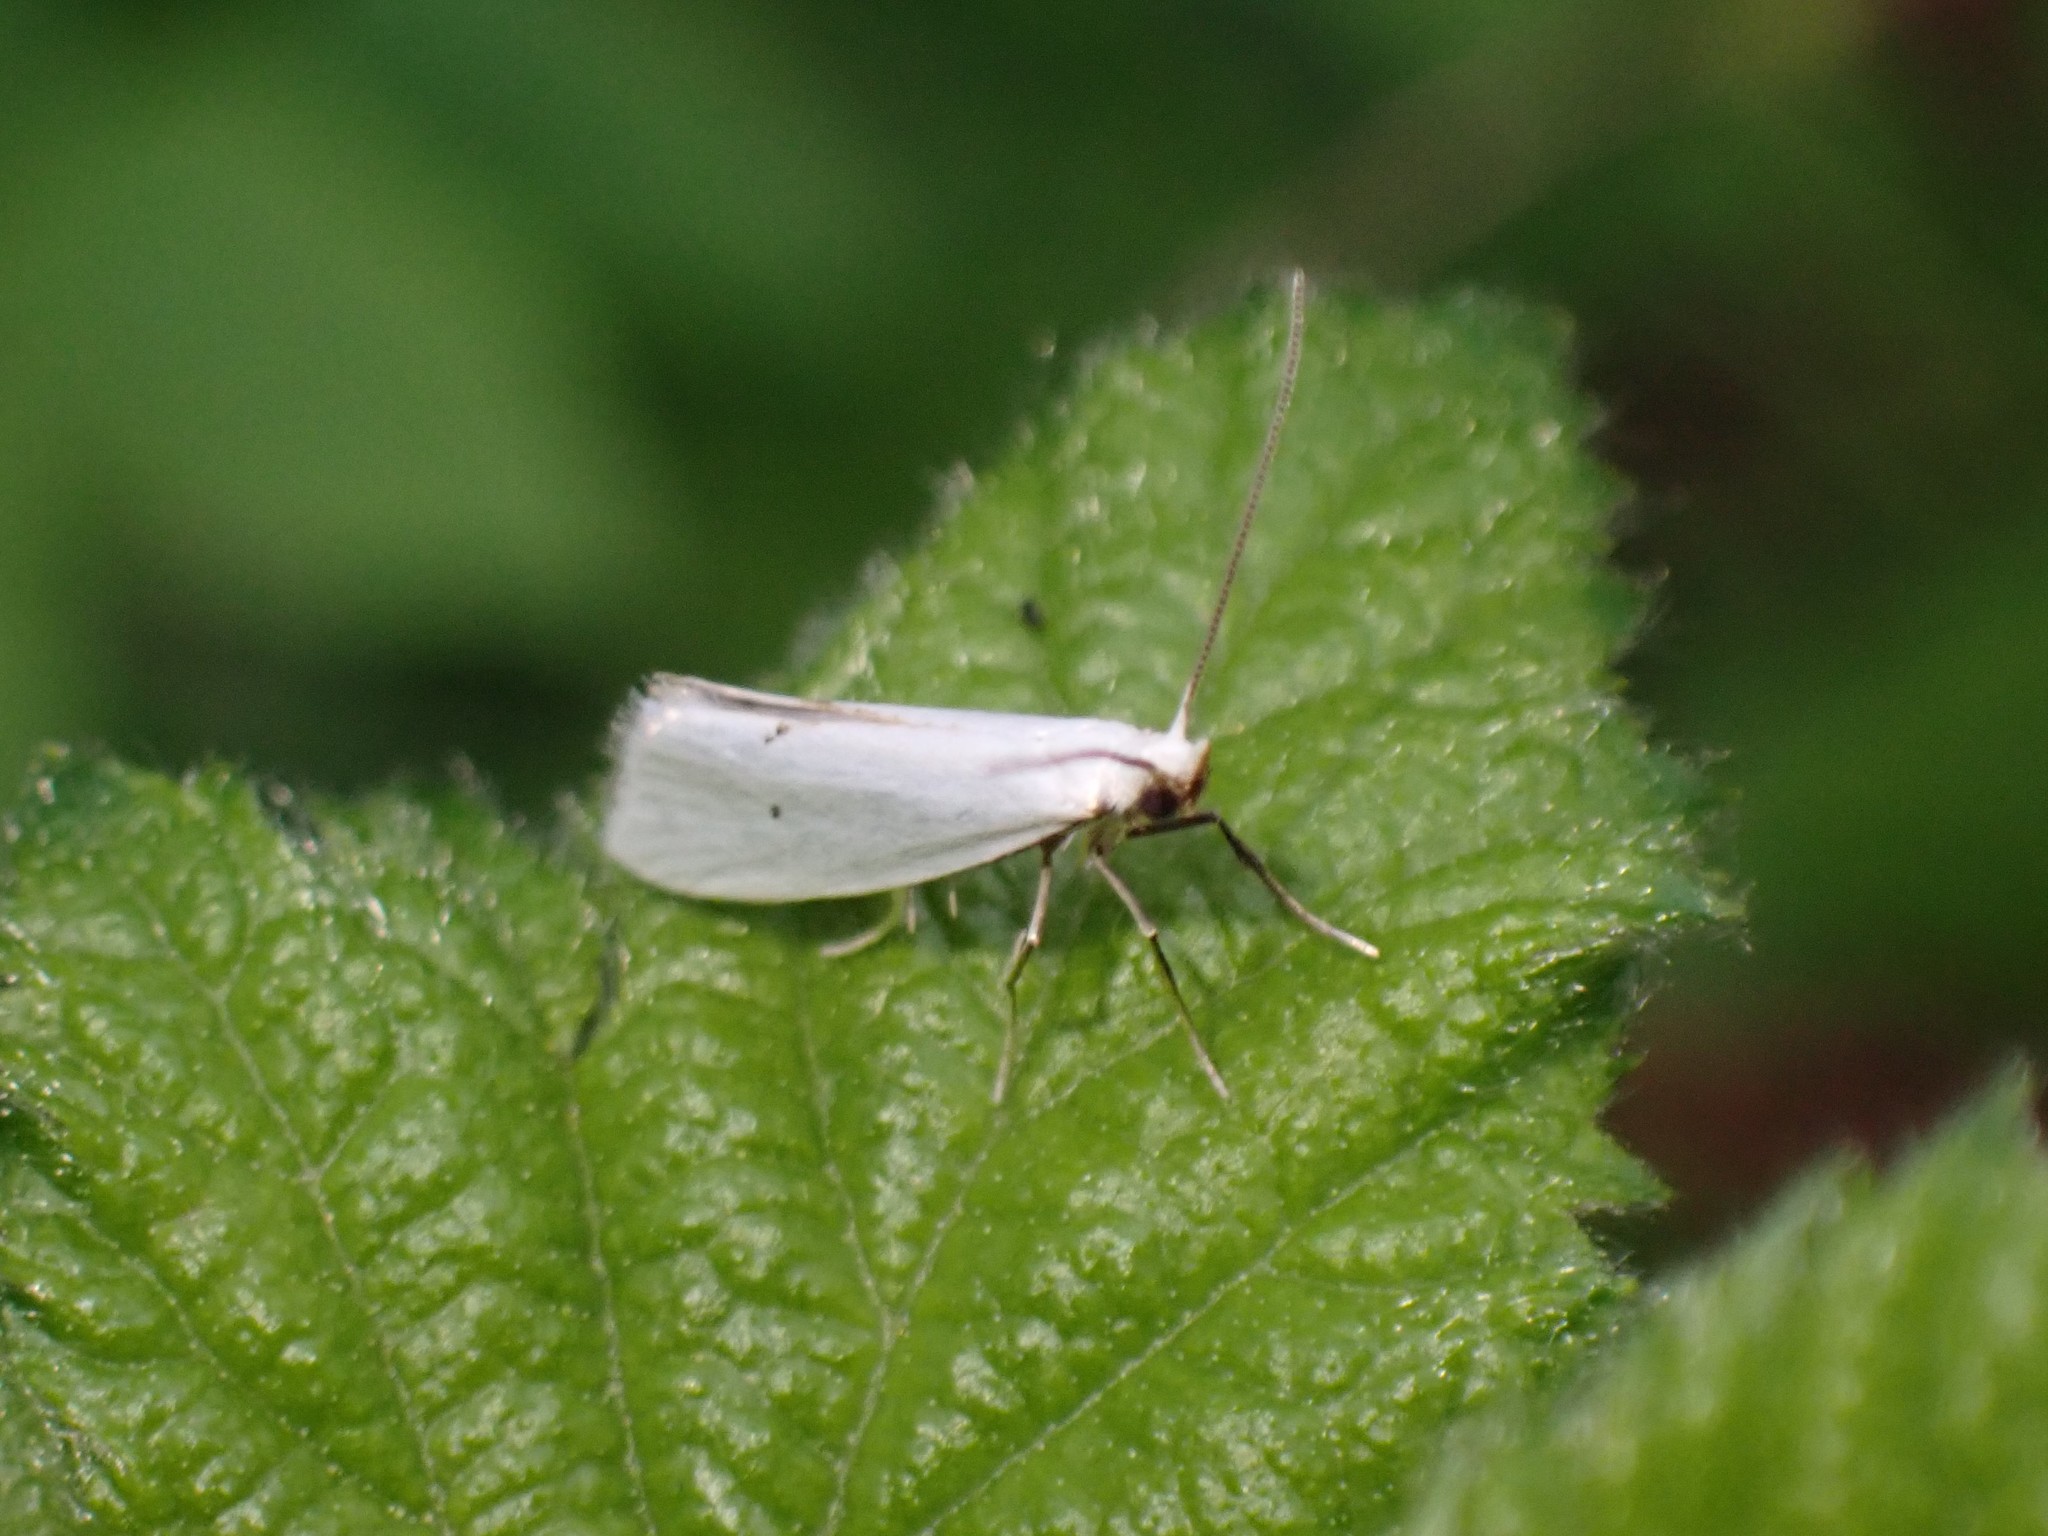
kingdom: Animalia
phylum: Arthropoda
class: Insecta
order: Lepidoptera
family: Yponomeutidae
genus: Eucalantica
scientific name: Eucalantica polita
